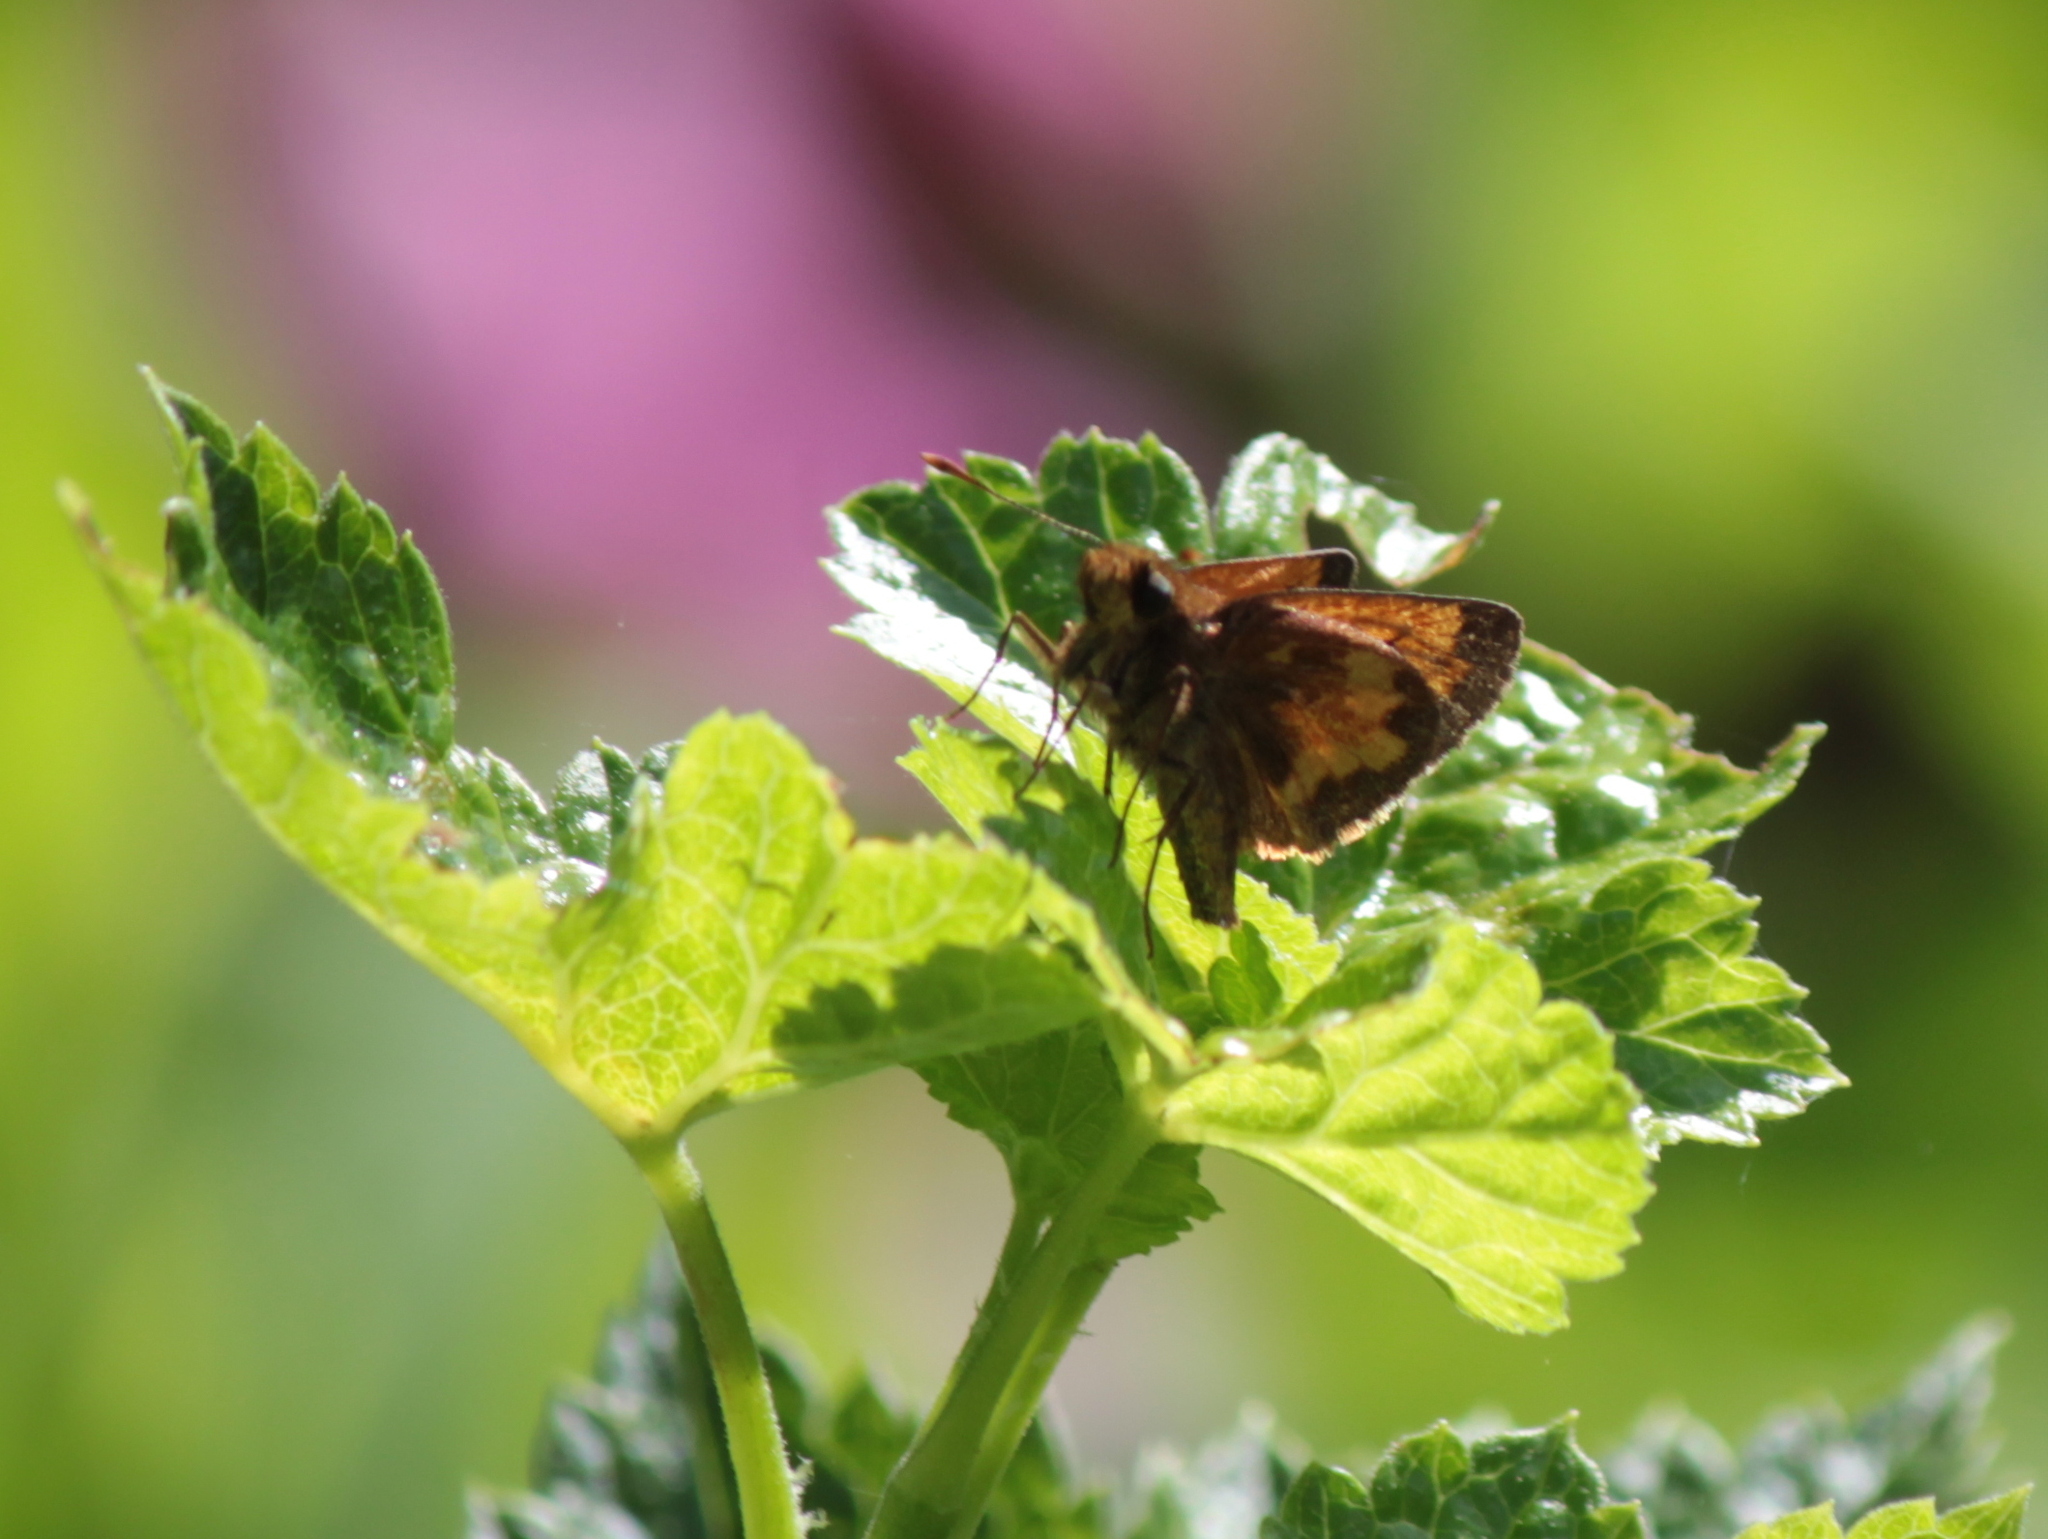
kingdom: Animalia
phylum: Arthropoda
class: Insecta
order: Lepidoptera
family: Hesperiidae
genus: Lon
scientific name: Lon hobomok
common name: Hobomok skipper
